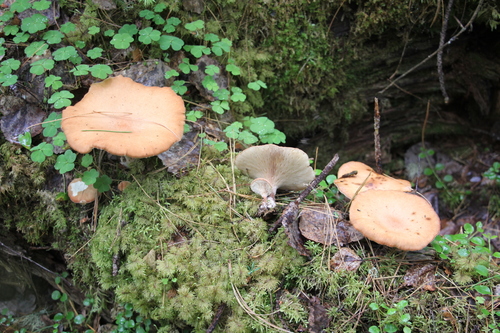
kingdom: Fungi
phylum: Basidiomycota
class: Agaricomycetes
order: Gloeophyllales
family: Gloeophyllaceae
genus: Neolentinus
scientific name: Neolentinus cyathiformis
